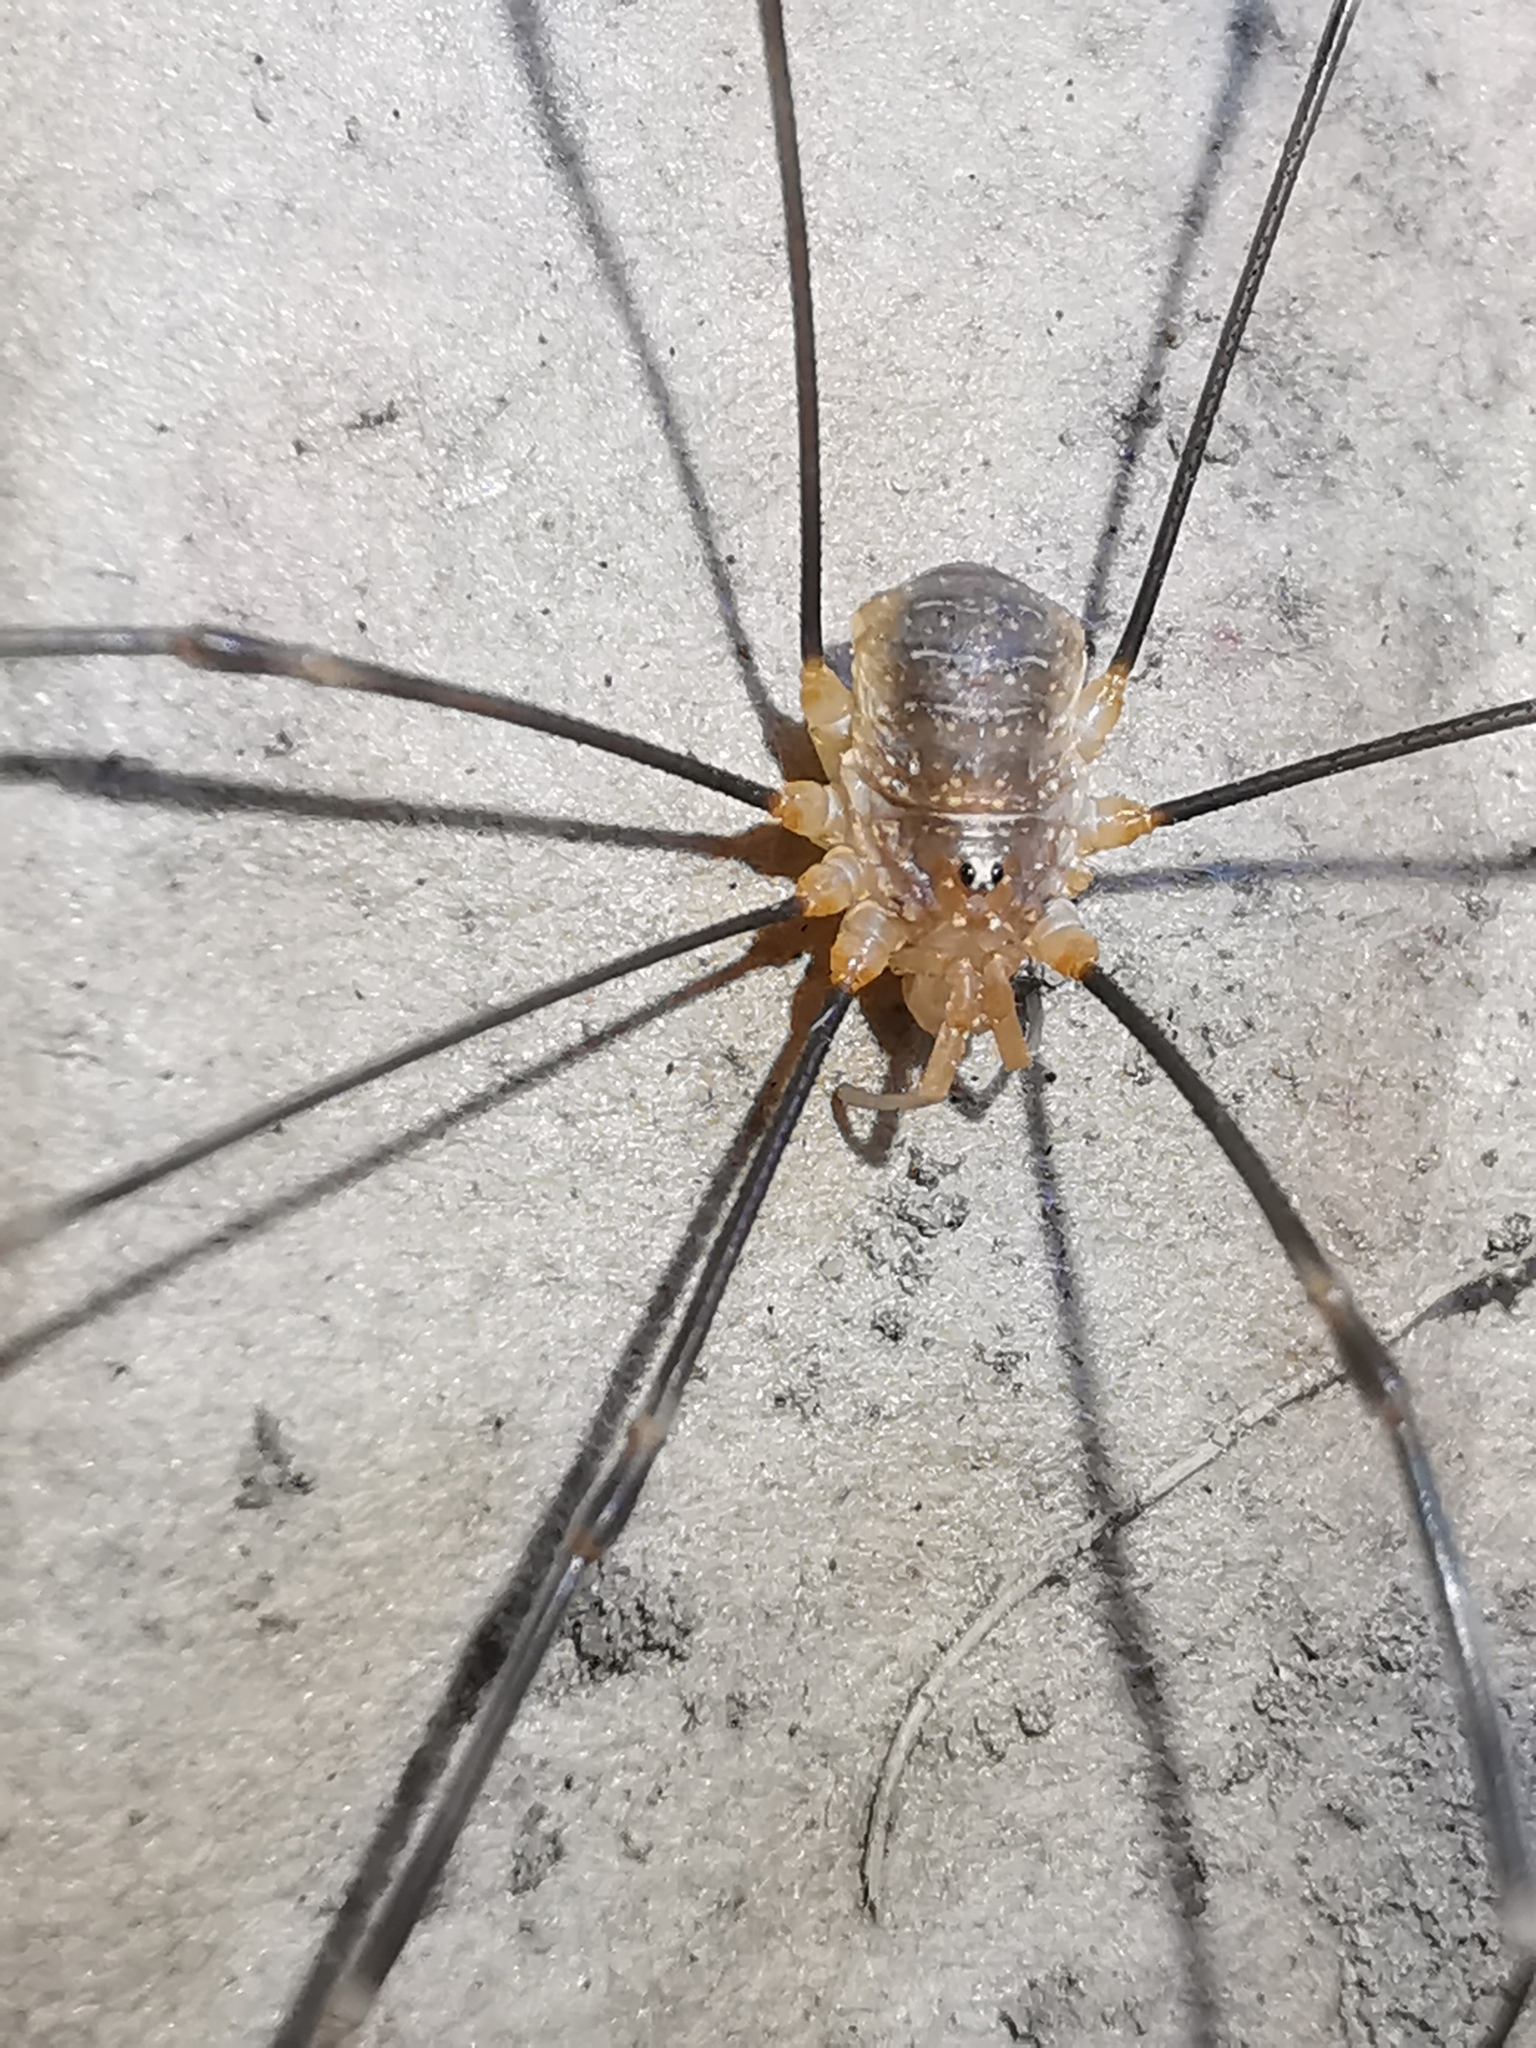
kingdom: Animalia
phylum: Arthropoda
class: Arachnida
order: Opiliones
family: Phalangiidae
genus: Opilio
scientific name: Opilio canestrinii
